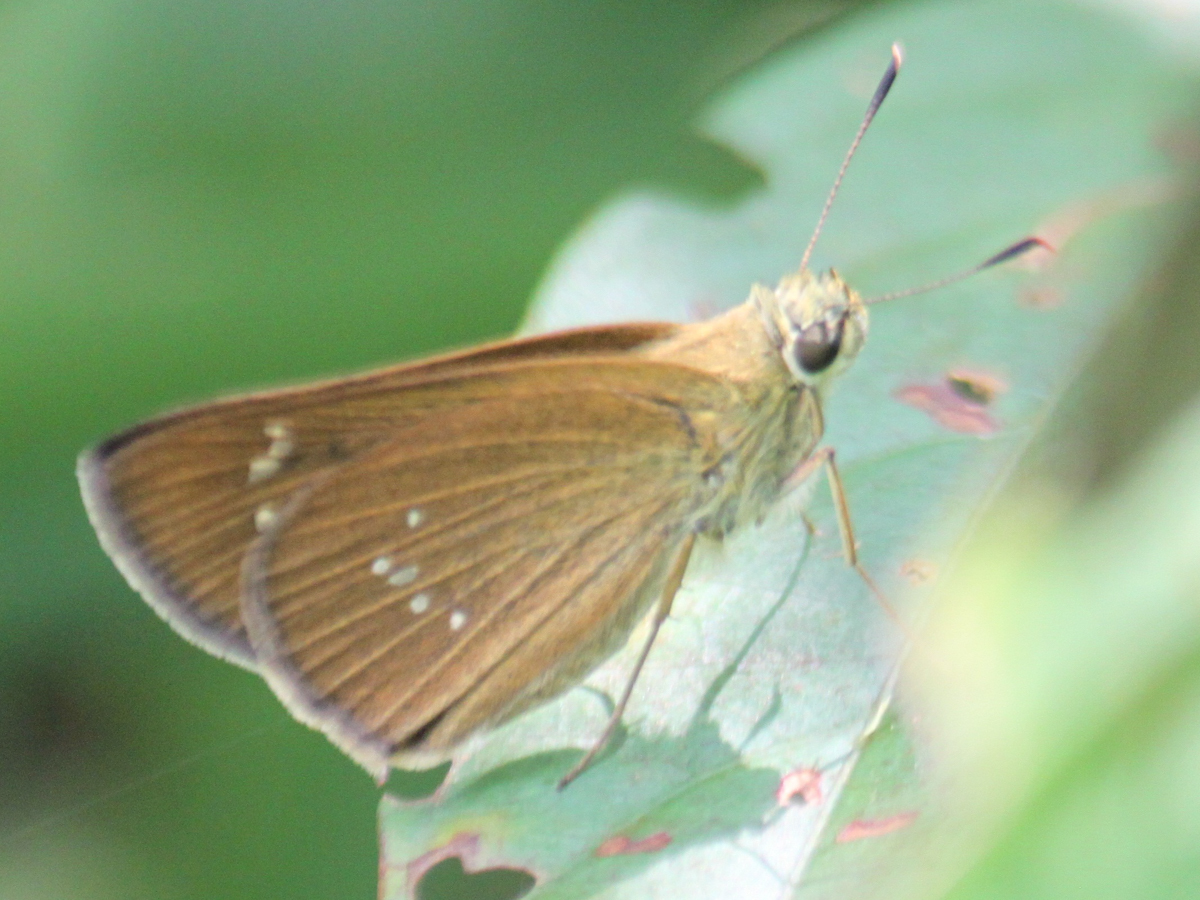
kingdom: Animalia
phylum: Arthropoda
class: Insecta
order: Lepidoptera
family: Hesperiidae
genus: Polytremis
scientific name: Polytremis lubricans
